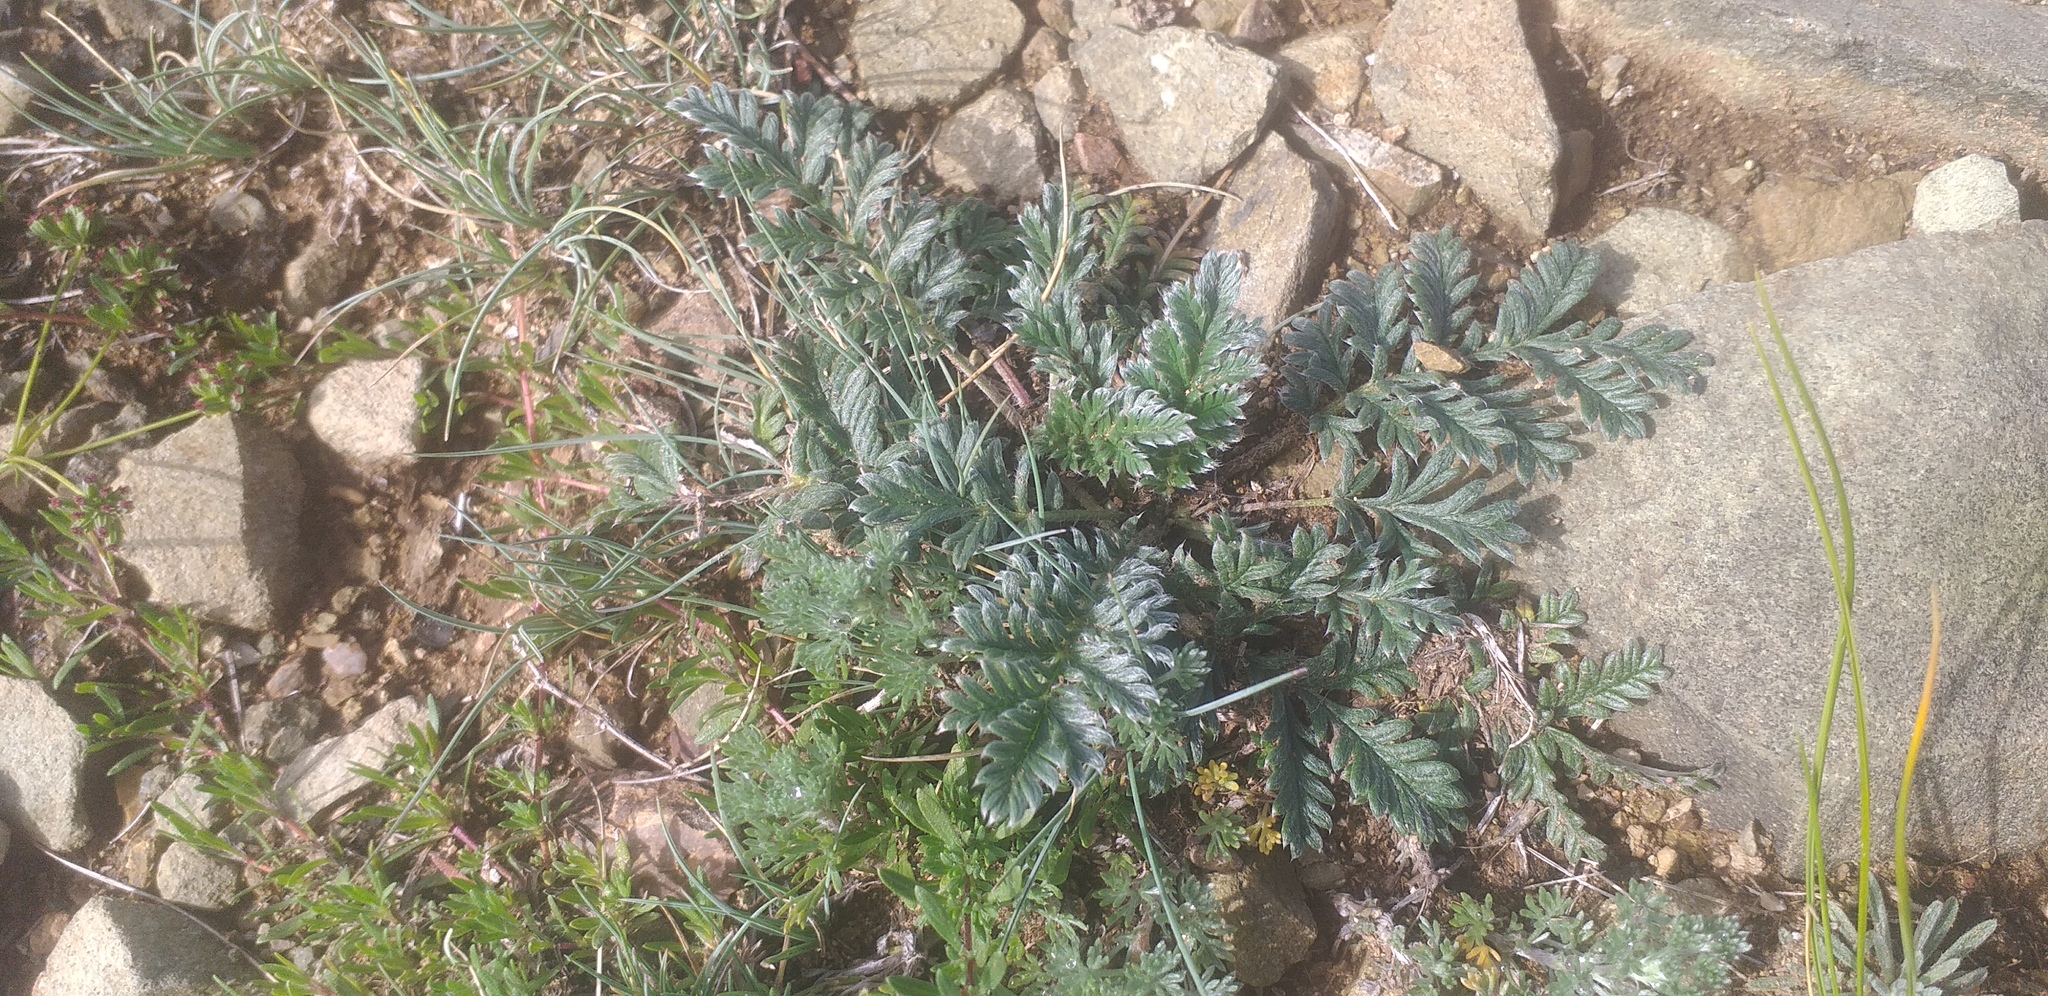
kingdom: Plantae
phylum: Tracheophyta
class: Magnoliopsida
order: Rosales
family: Rosaceae
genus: Potentilla
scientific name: Potentilla sericea
